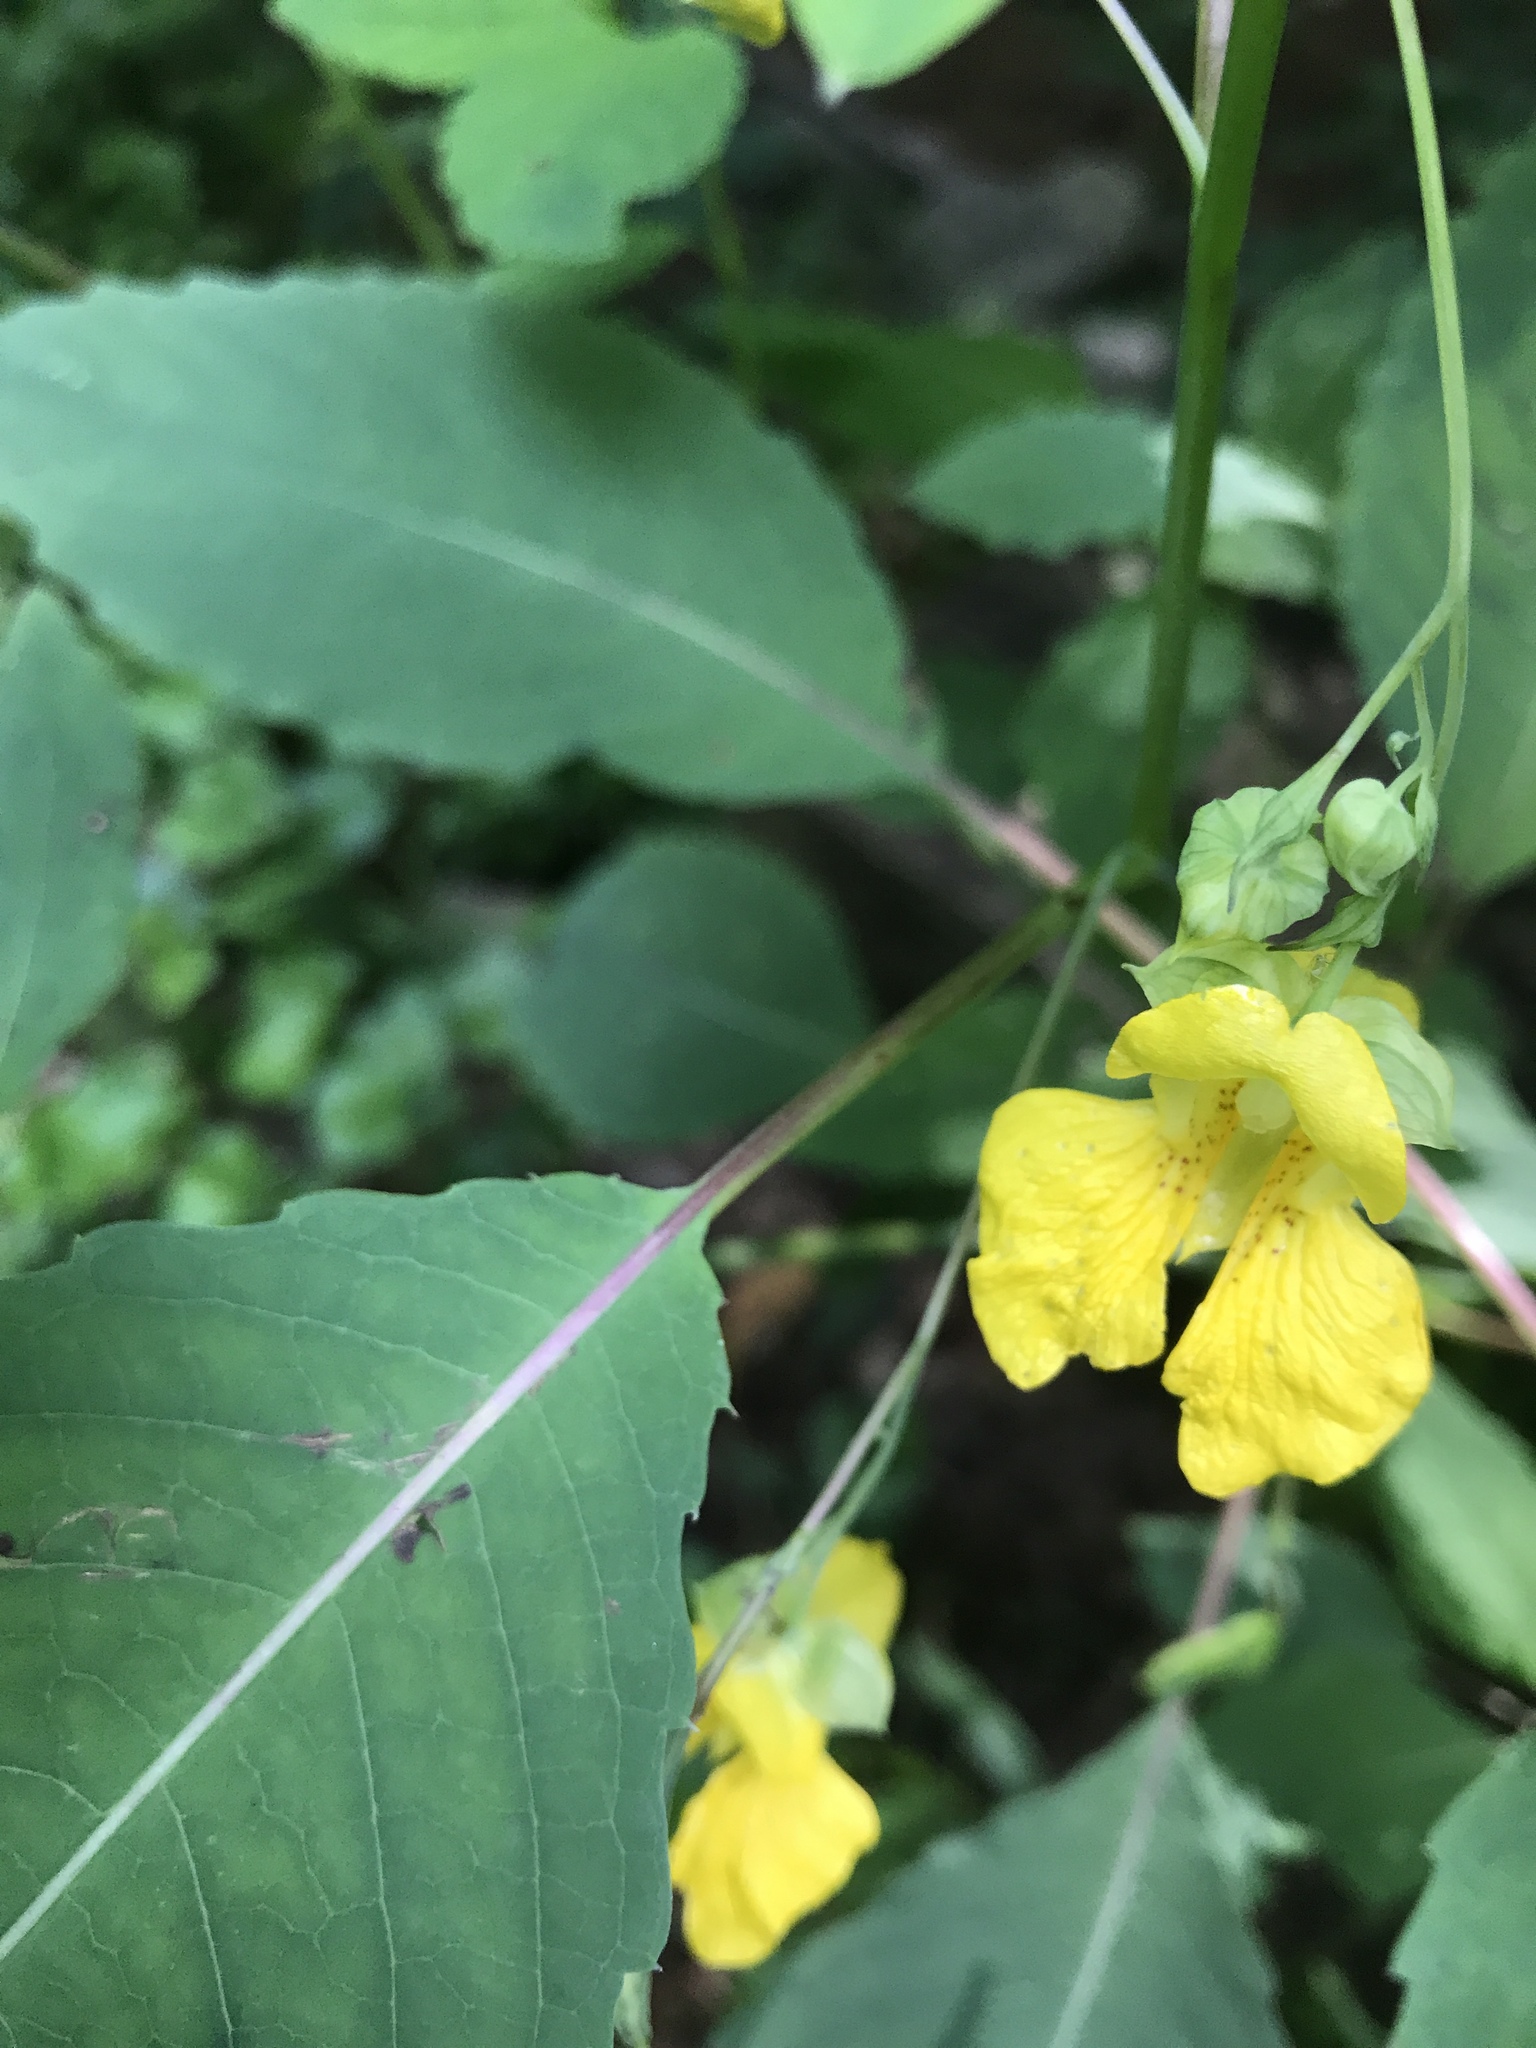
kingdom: Plantae
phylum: Tracheophyta
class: Magnoliopsida
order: Ericales
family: Balsaminaceae
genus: Impatiens
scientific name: Impatiens pallida
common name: Pale snapweed
